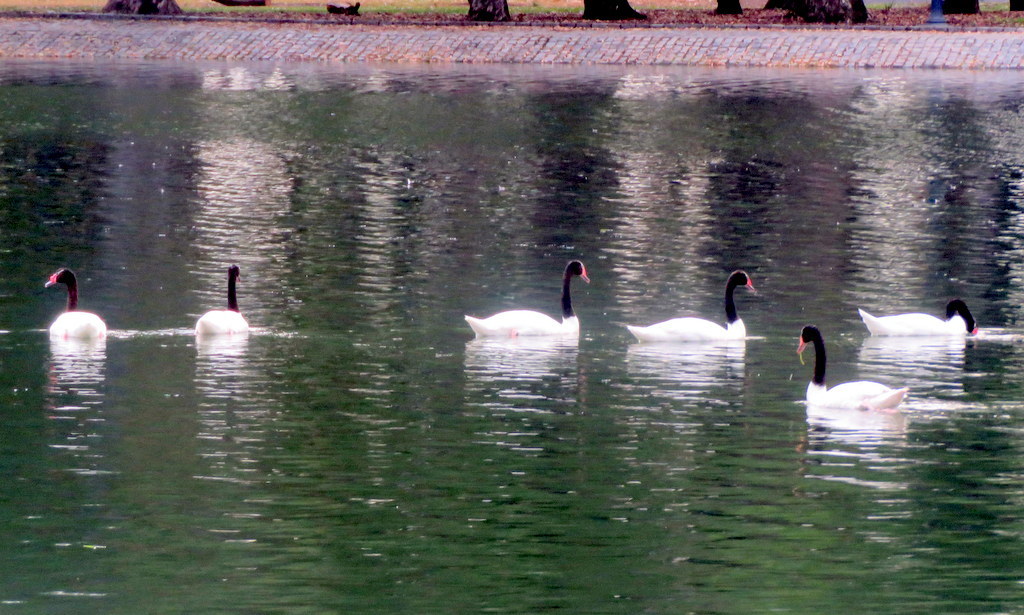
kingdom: Animalia
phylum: Chordata
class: Aves
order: Anseriformes
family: Anatidae
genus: Cygnus
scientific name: Cygnus melancoryphus
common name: Black-necked swan
